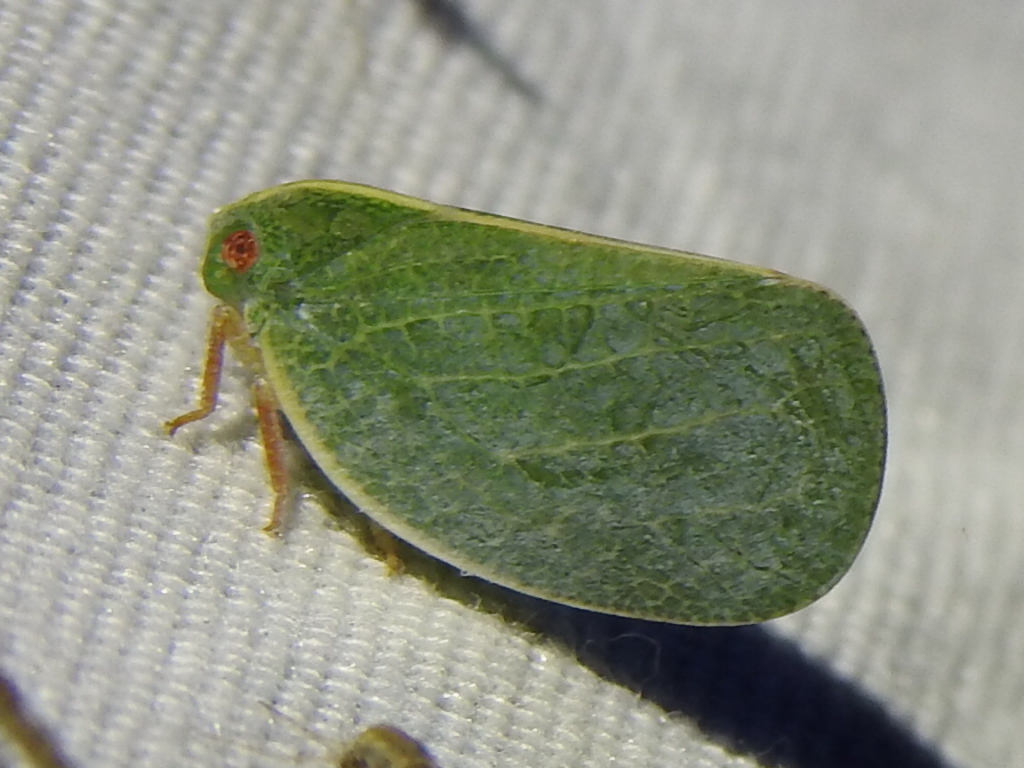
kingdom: Animalia
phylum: Arthropoda
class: Insecta
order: Hemiptera
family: Acanaloniidae
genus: Acanalonia
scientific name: Acanalonia servillei
